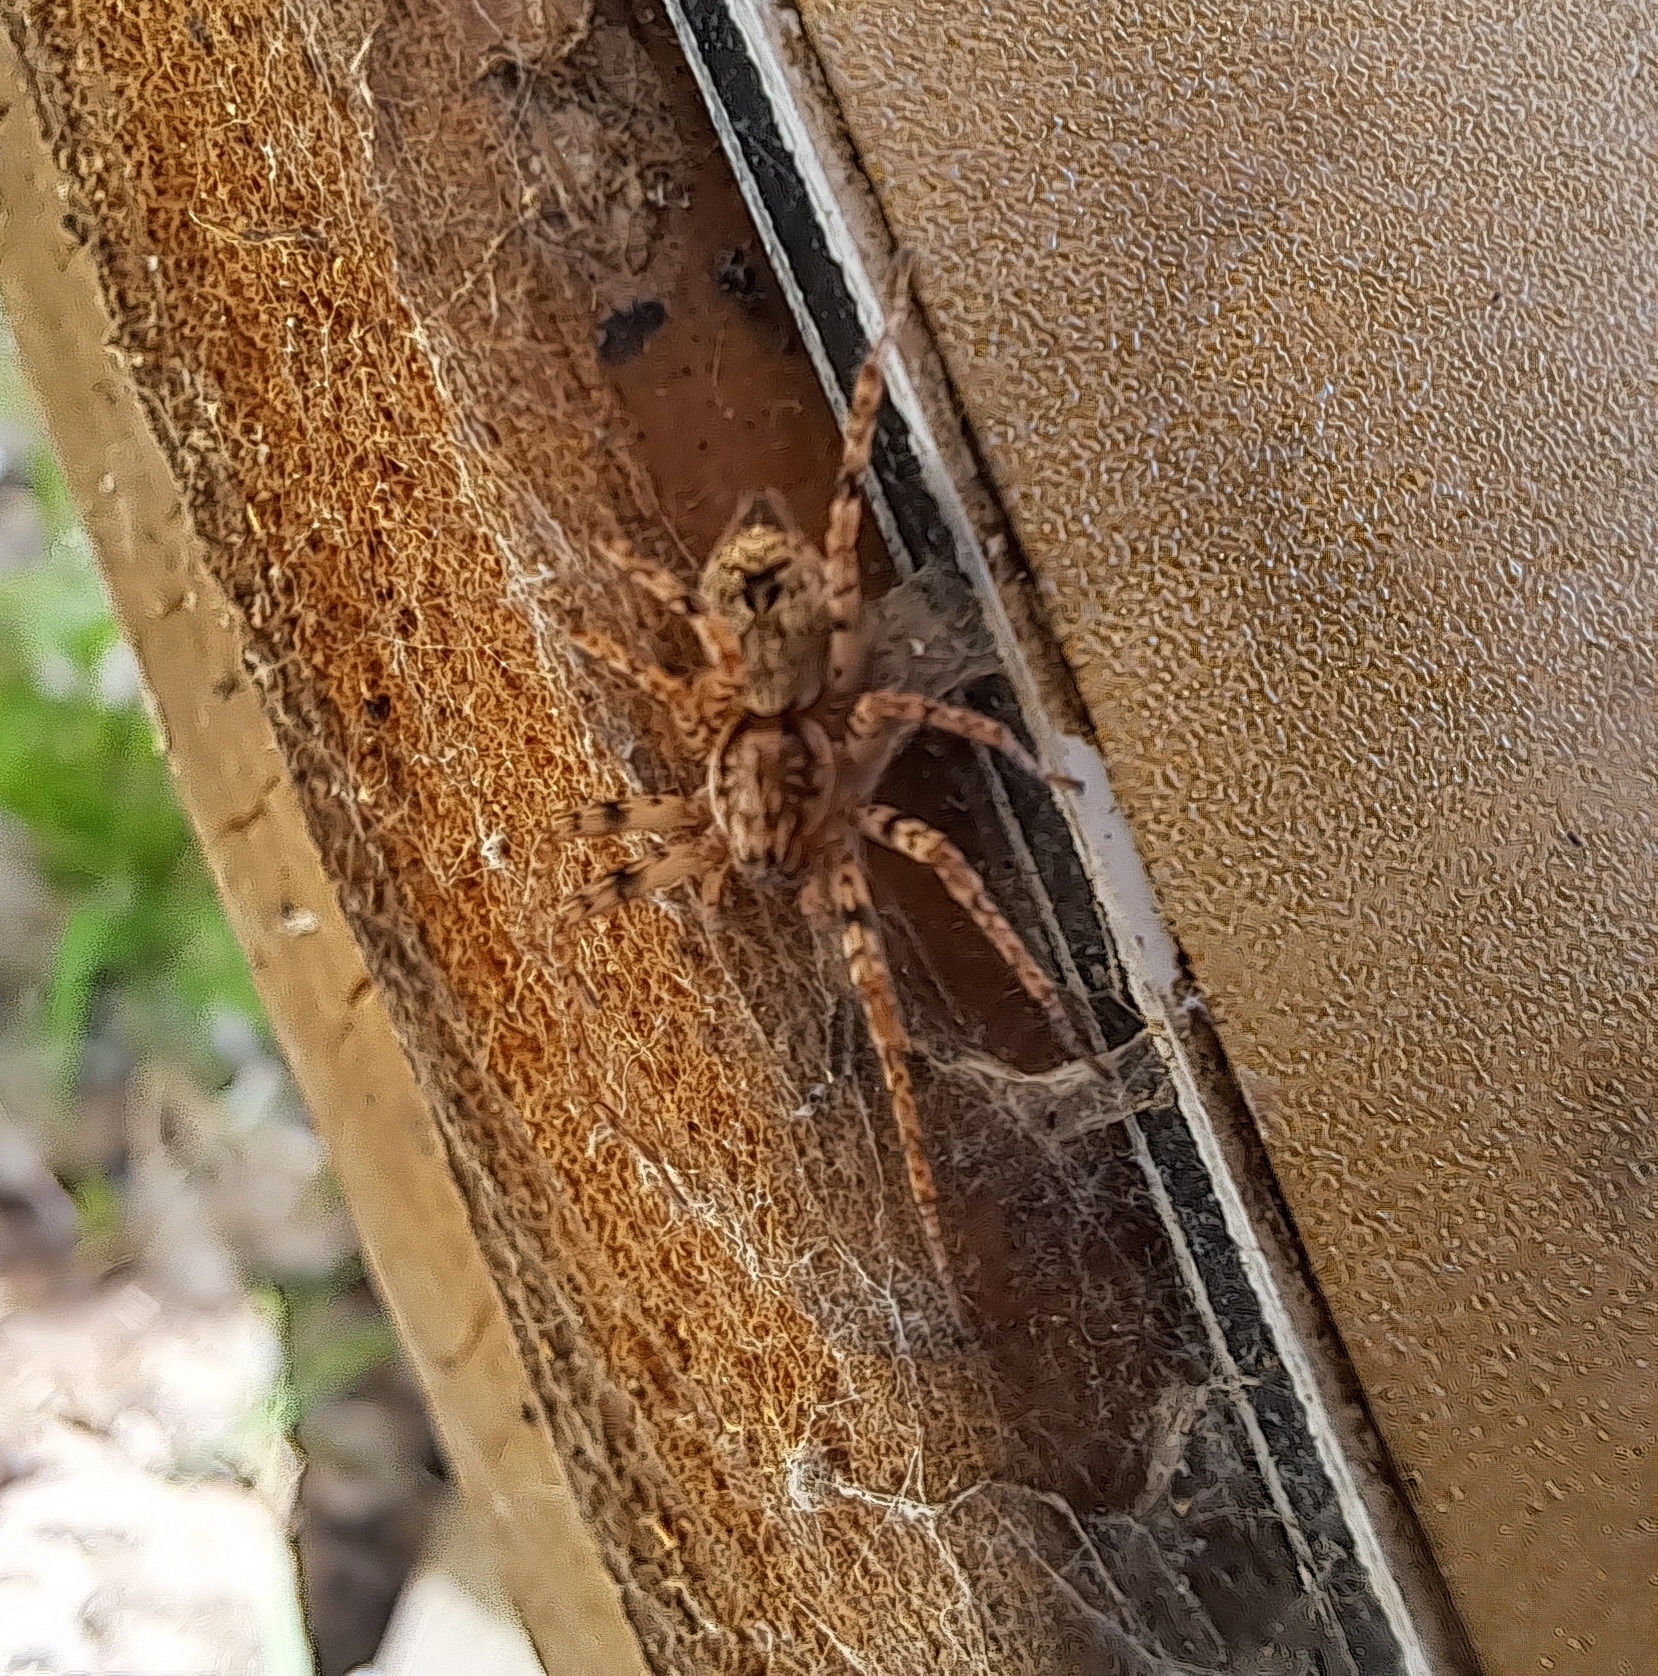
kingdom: Animalia
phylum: Arthropoda
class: Arachnida
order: Araneae
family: Anyphaenidae
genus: Anyphaena
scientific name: Anyphaena accentuata
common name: Buzzing spider
